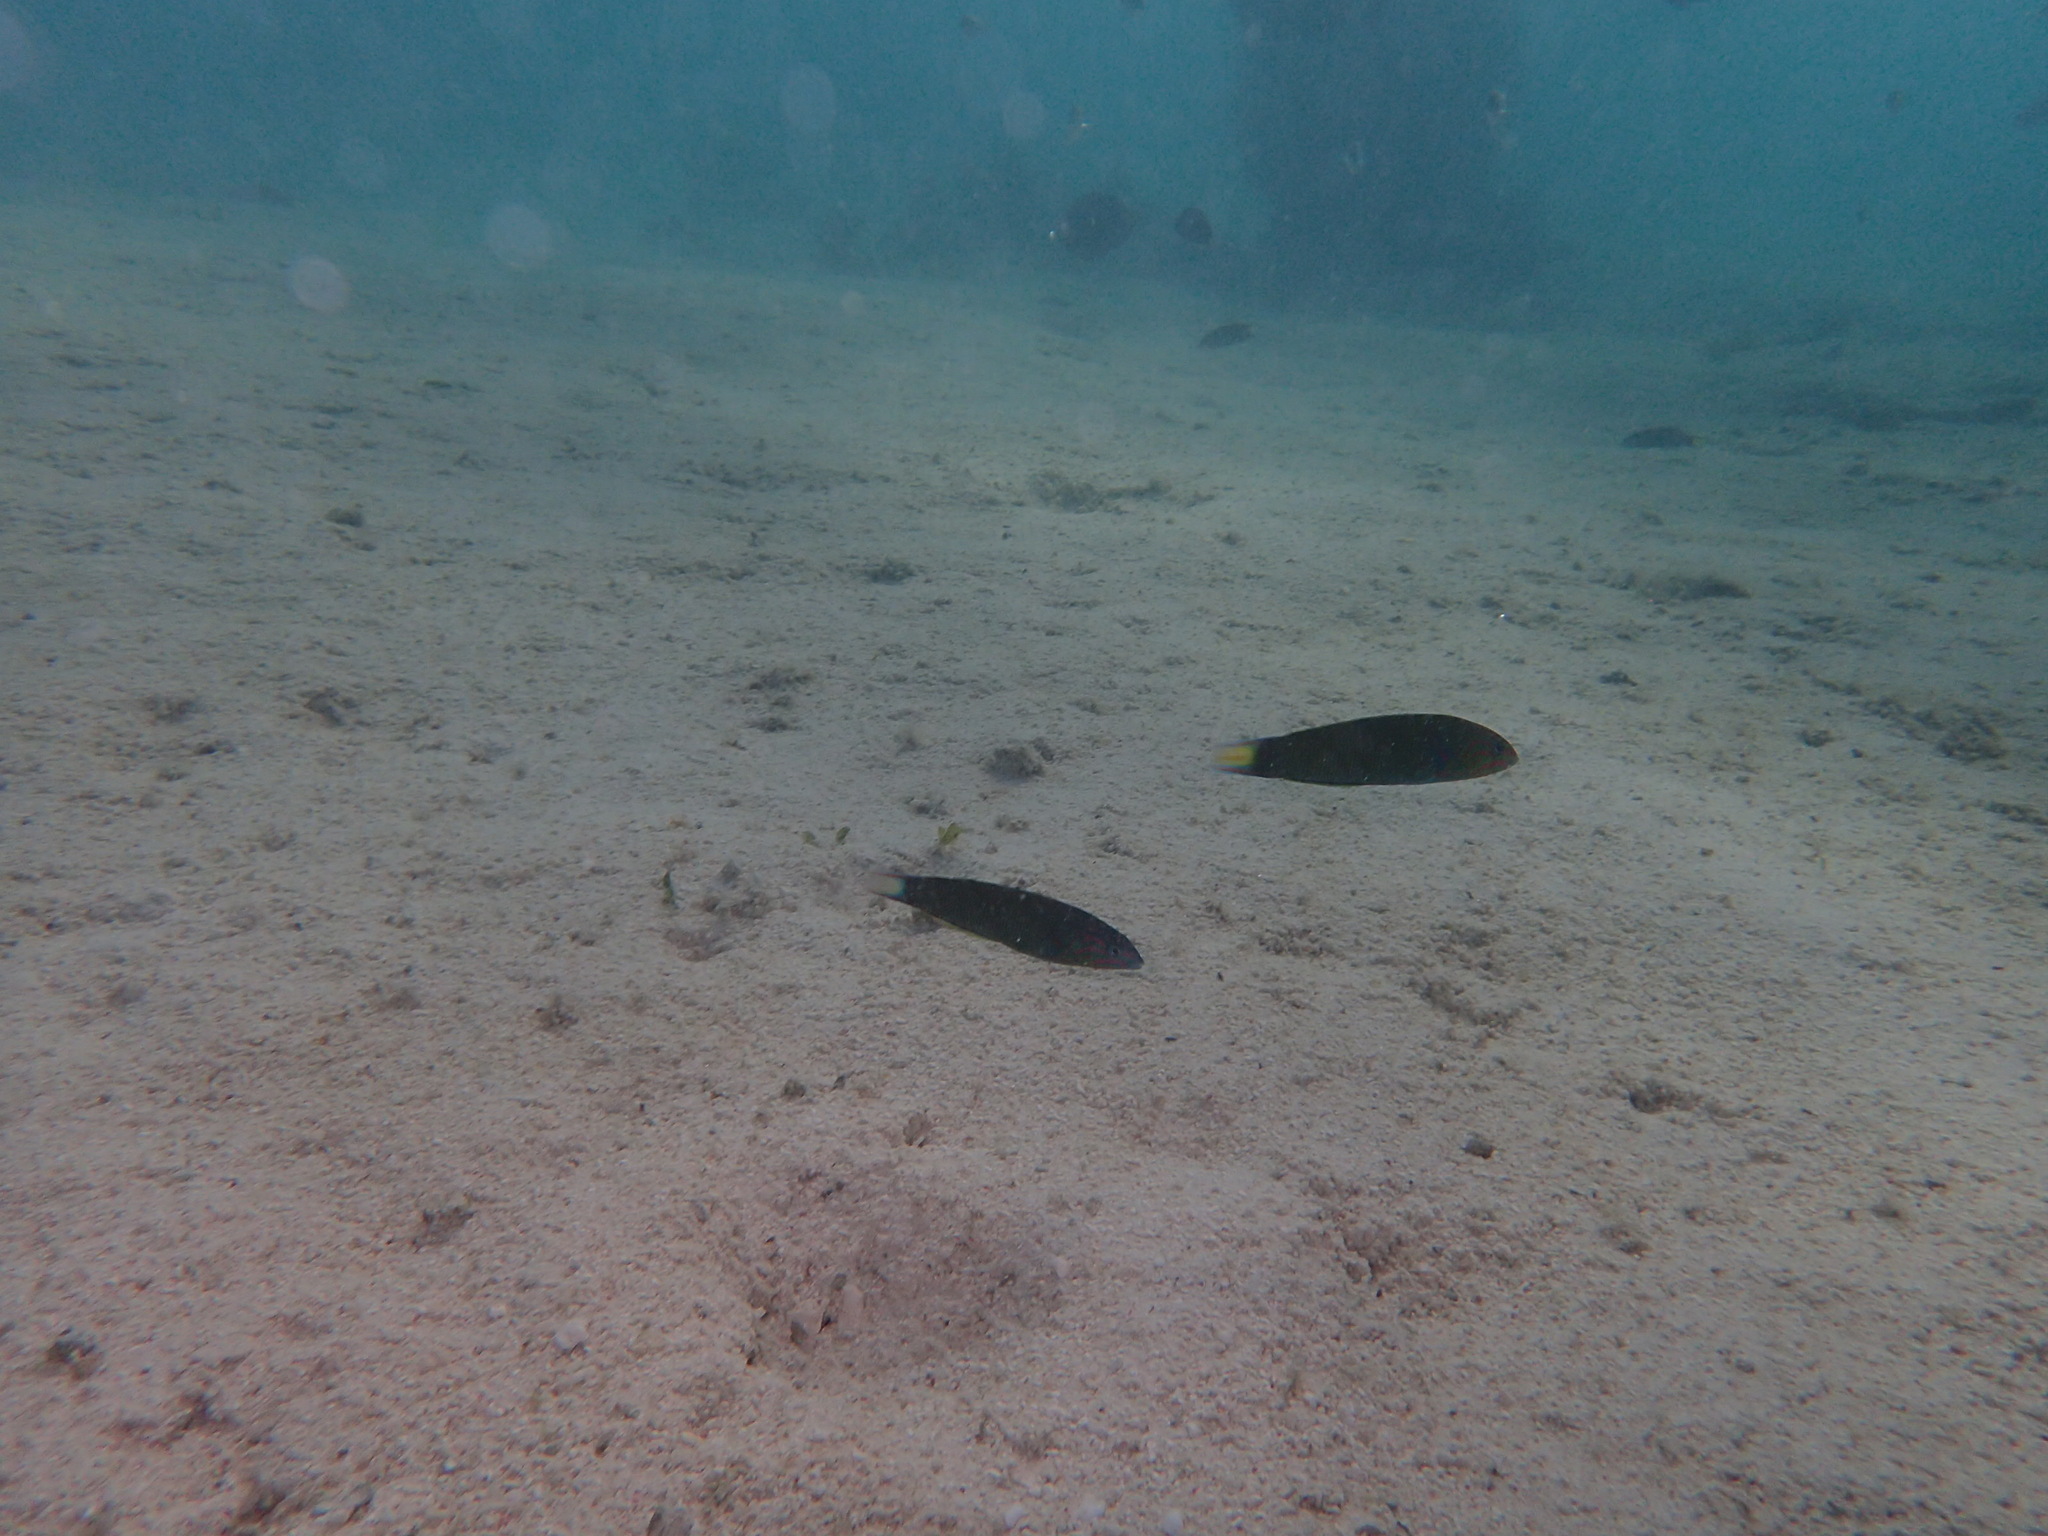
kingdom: Animalia
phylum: Chordata
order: Perciformes
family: Labridae
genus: Thalassoma
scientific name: Thalassoma lunare
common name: Blue wrasse
